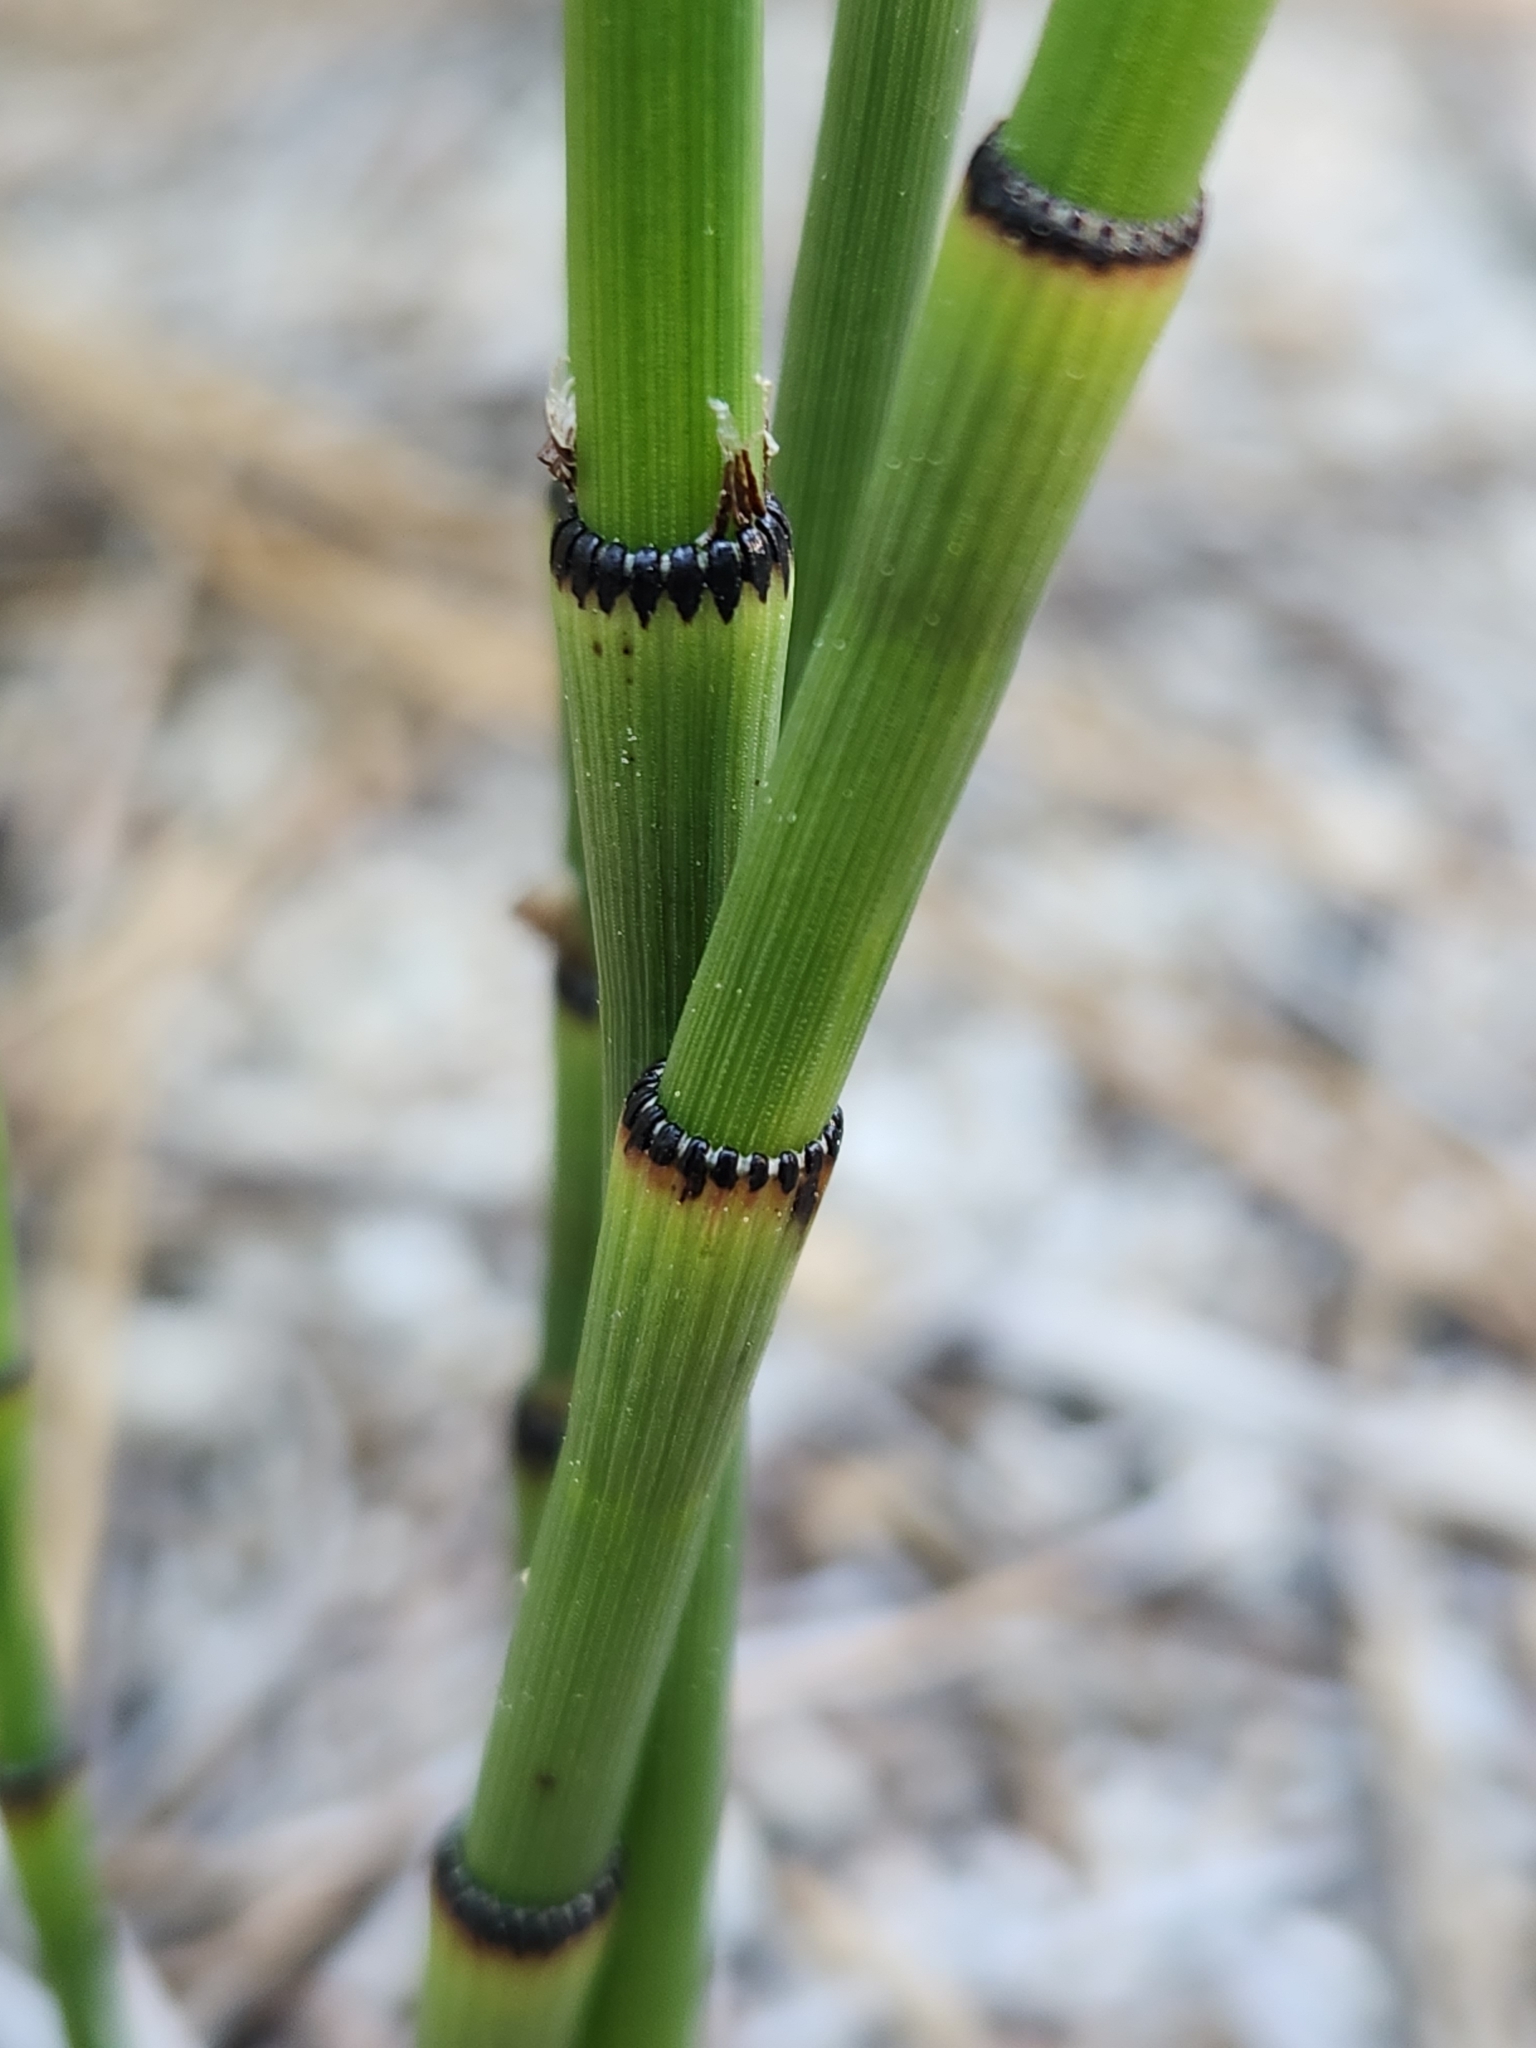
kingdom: Plantae
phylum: Tracheophyta
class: Polypodiopsida
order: Equisetales
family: Equisetaceae
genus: Equisetum
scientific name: Equisetum laevigatum
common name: Smooth scouring-rush
